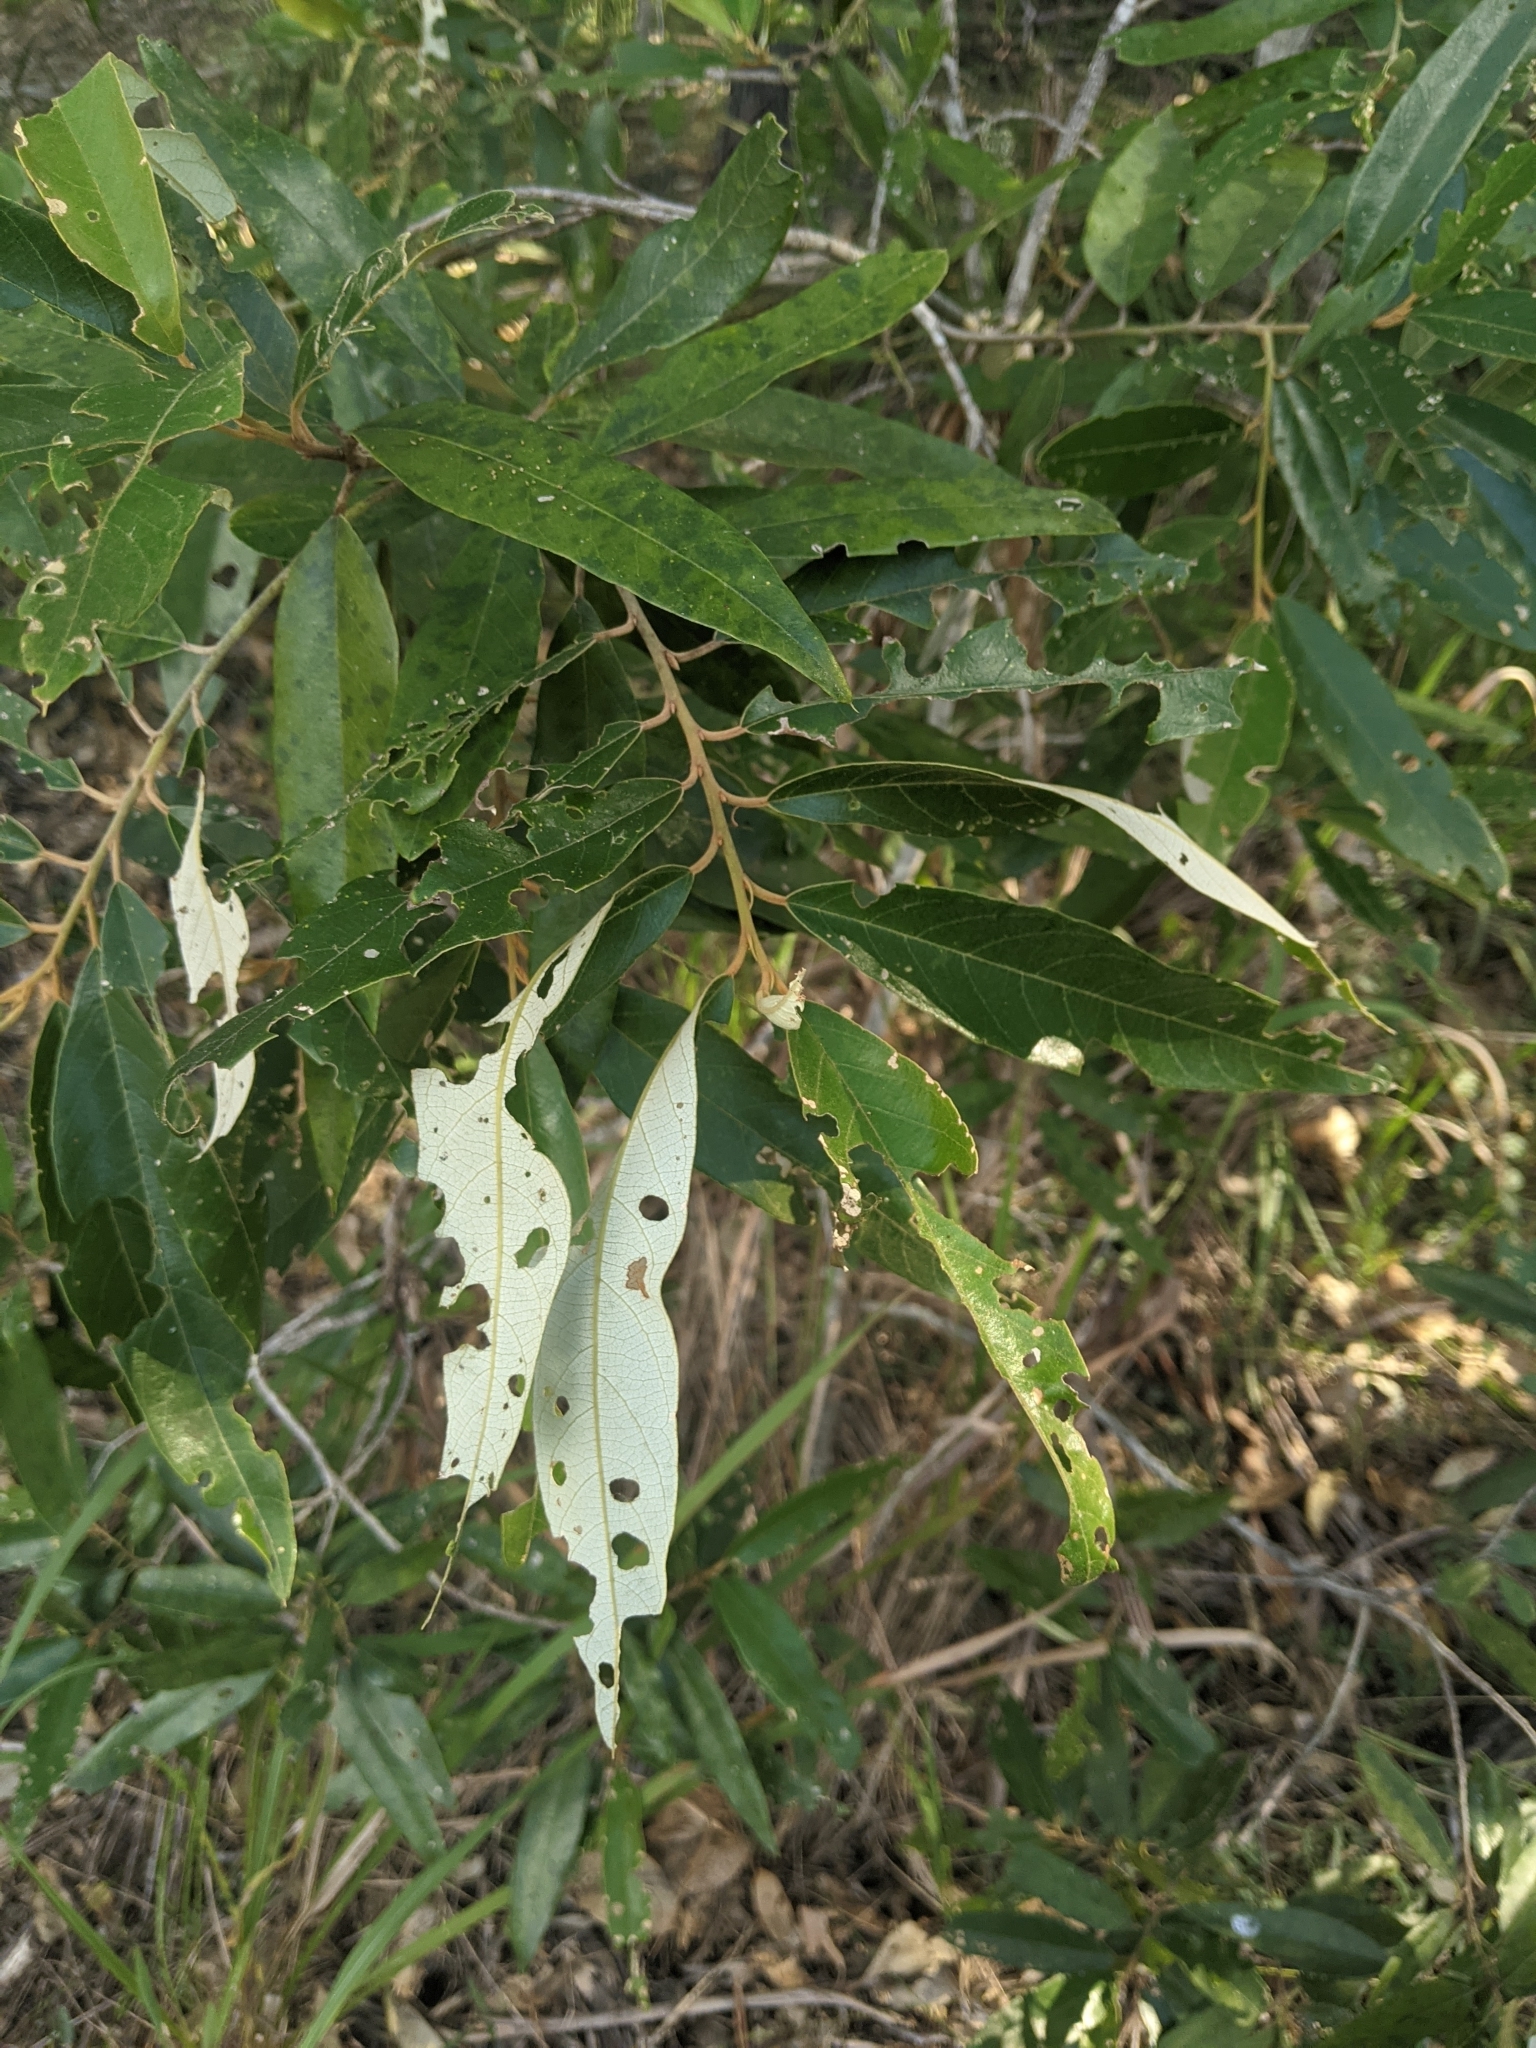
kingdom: Plantae
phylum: Tracheophyta
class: Magnoliopsida
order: Rosales
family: Rhamnaceae
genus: Alphitonia
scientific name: Alphitonia excelsa
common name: Red ash
